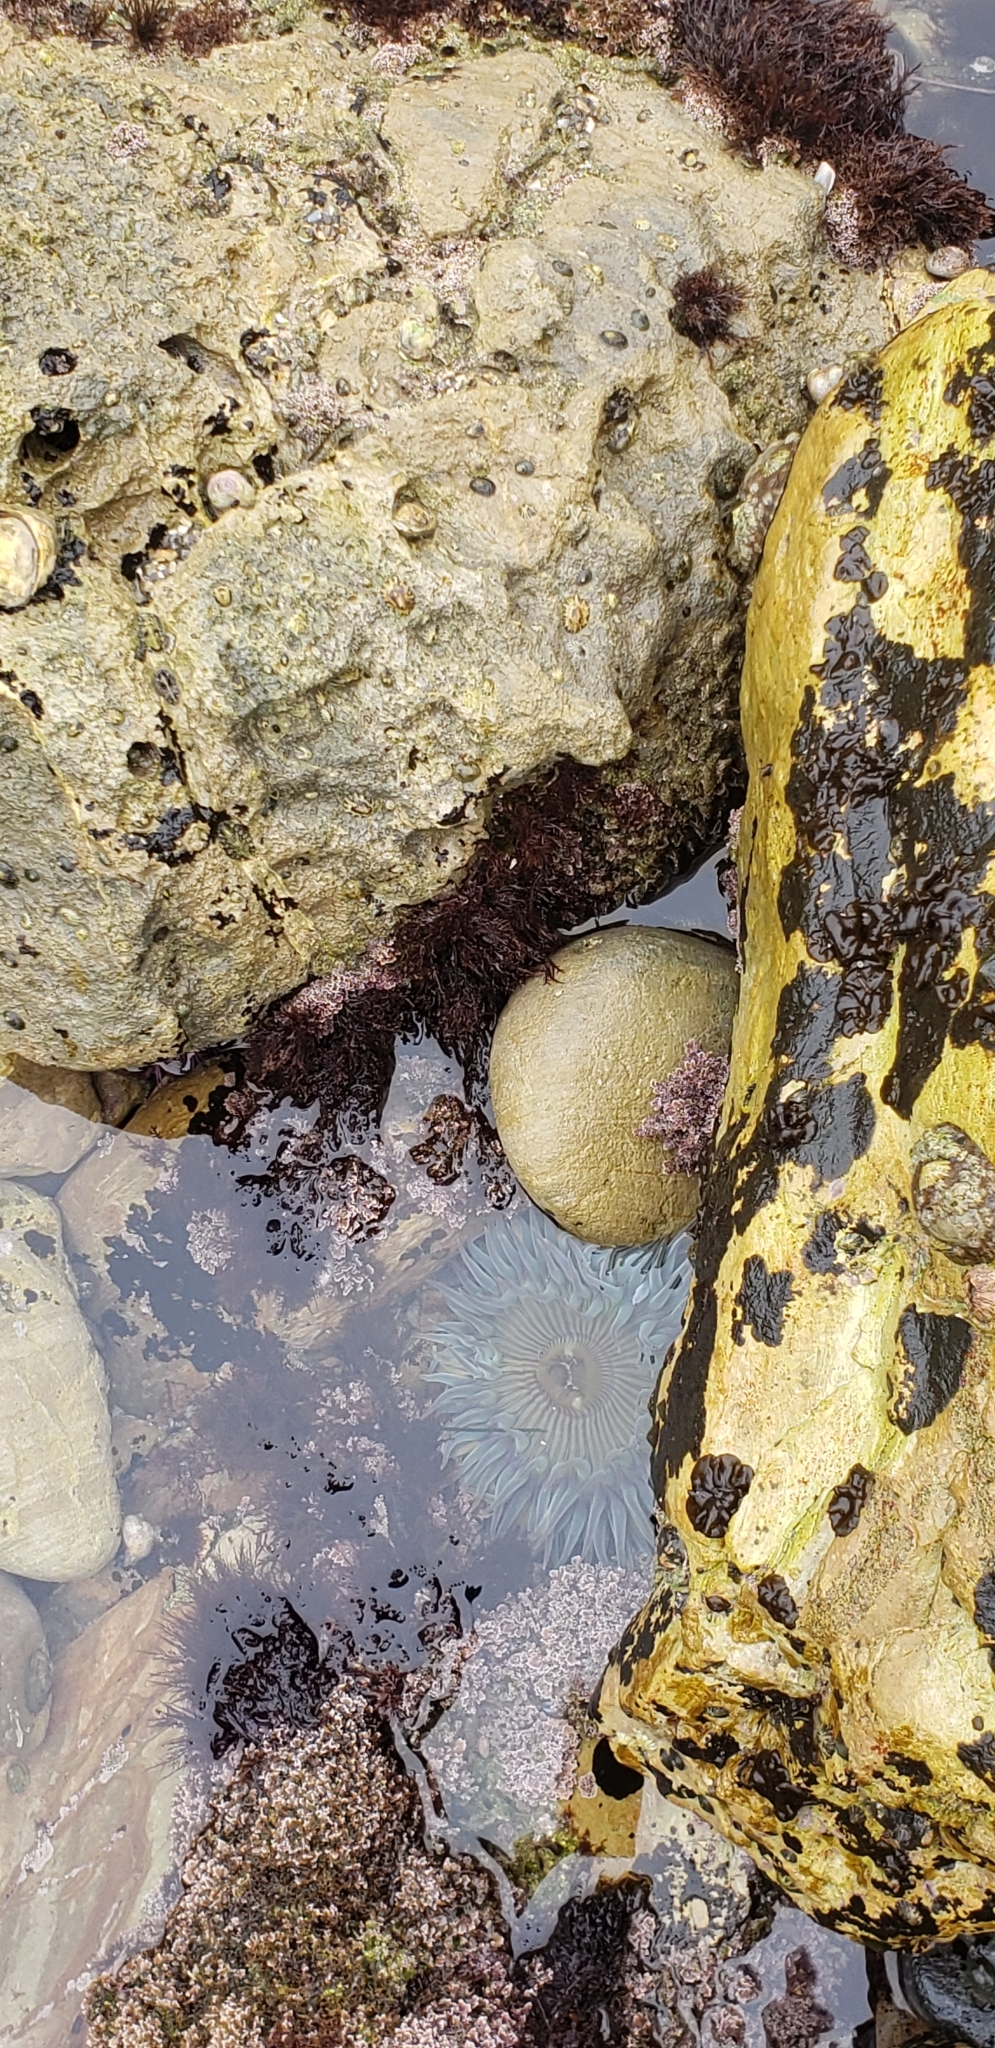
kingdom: Animalia
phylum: Cnidaria
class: Anthozoa
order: Actiniaria
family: Actiniidae
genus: Anthopleura
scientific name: Anthopleura sola
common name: Sun anemone
